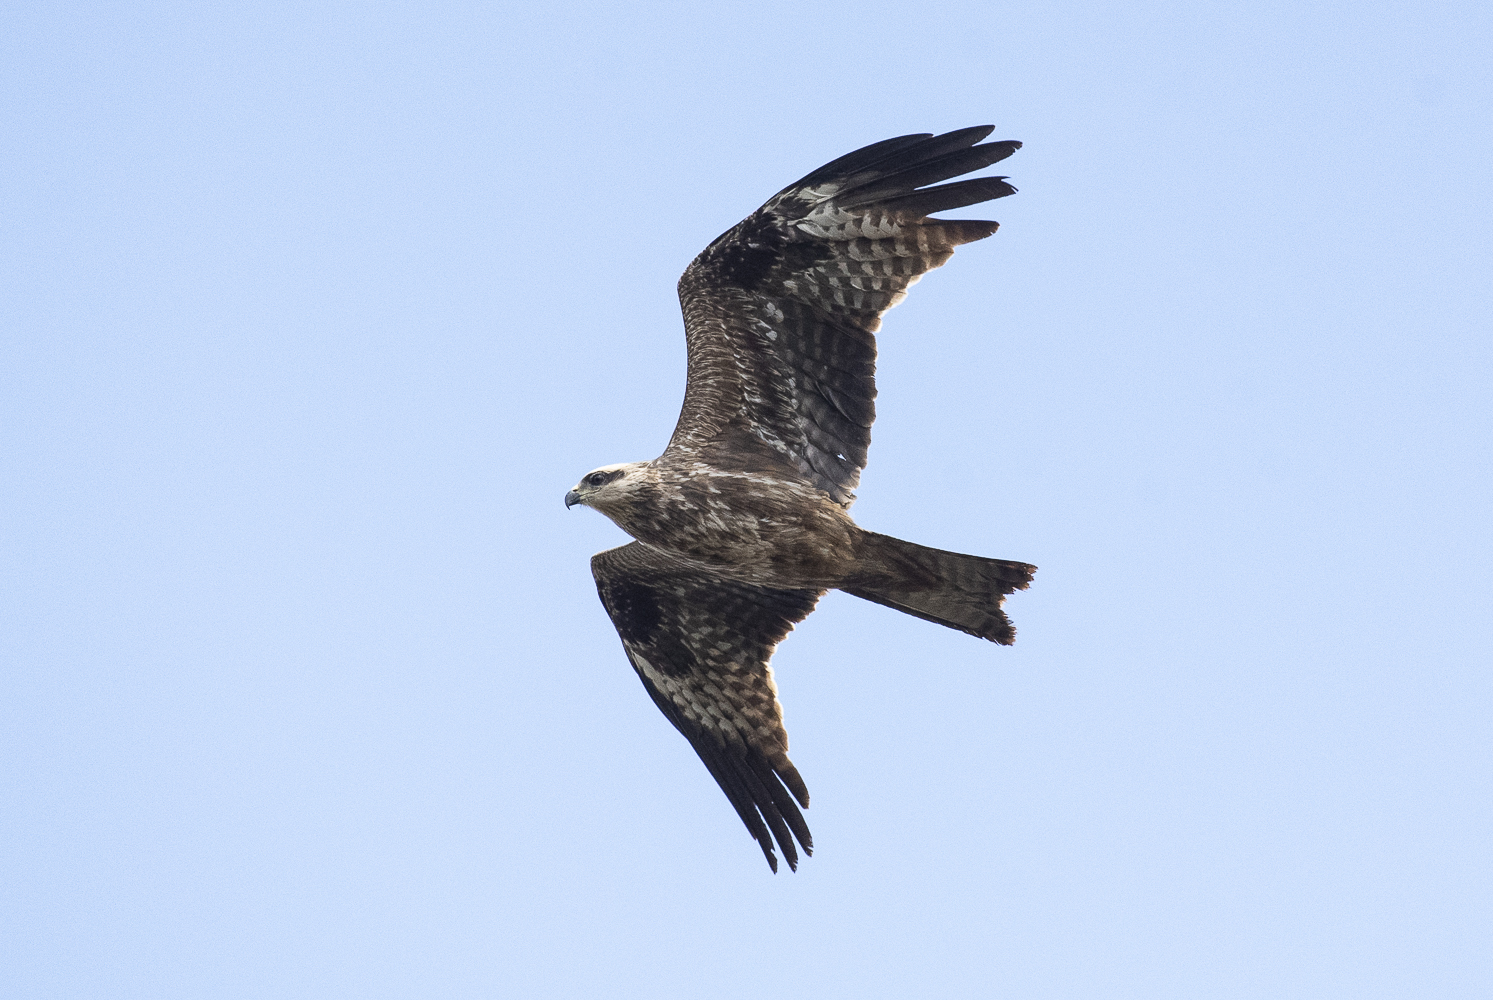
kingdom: Animalia
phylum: Chordata
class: Aves
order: Accipitriformes
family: Accipitridae
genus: Milvus
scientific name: Milvus migrans
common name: Black kite
